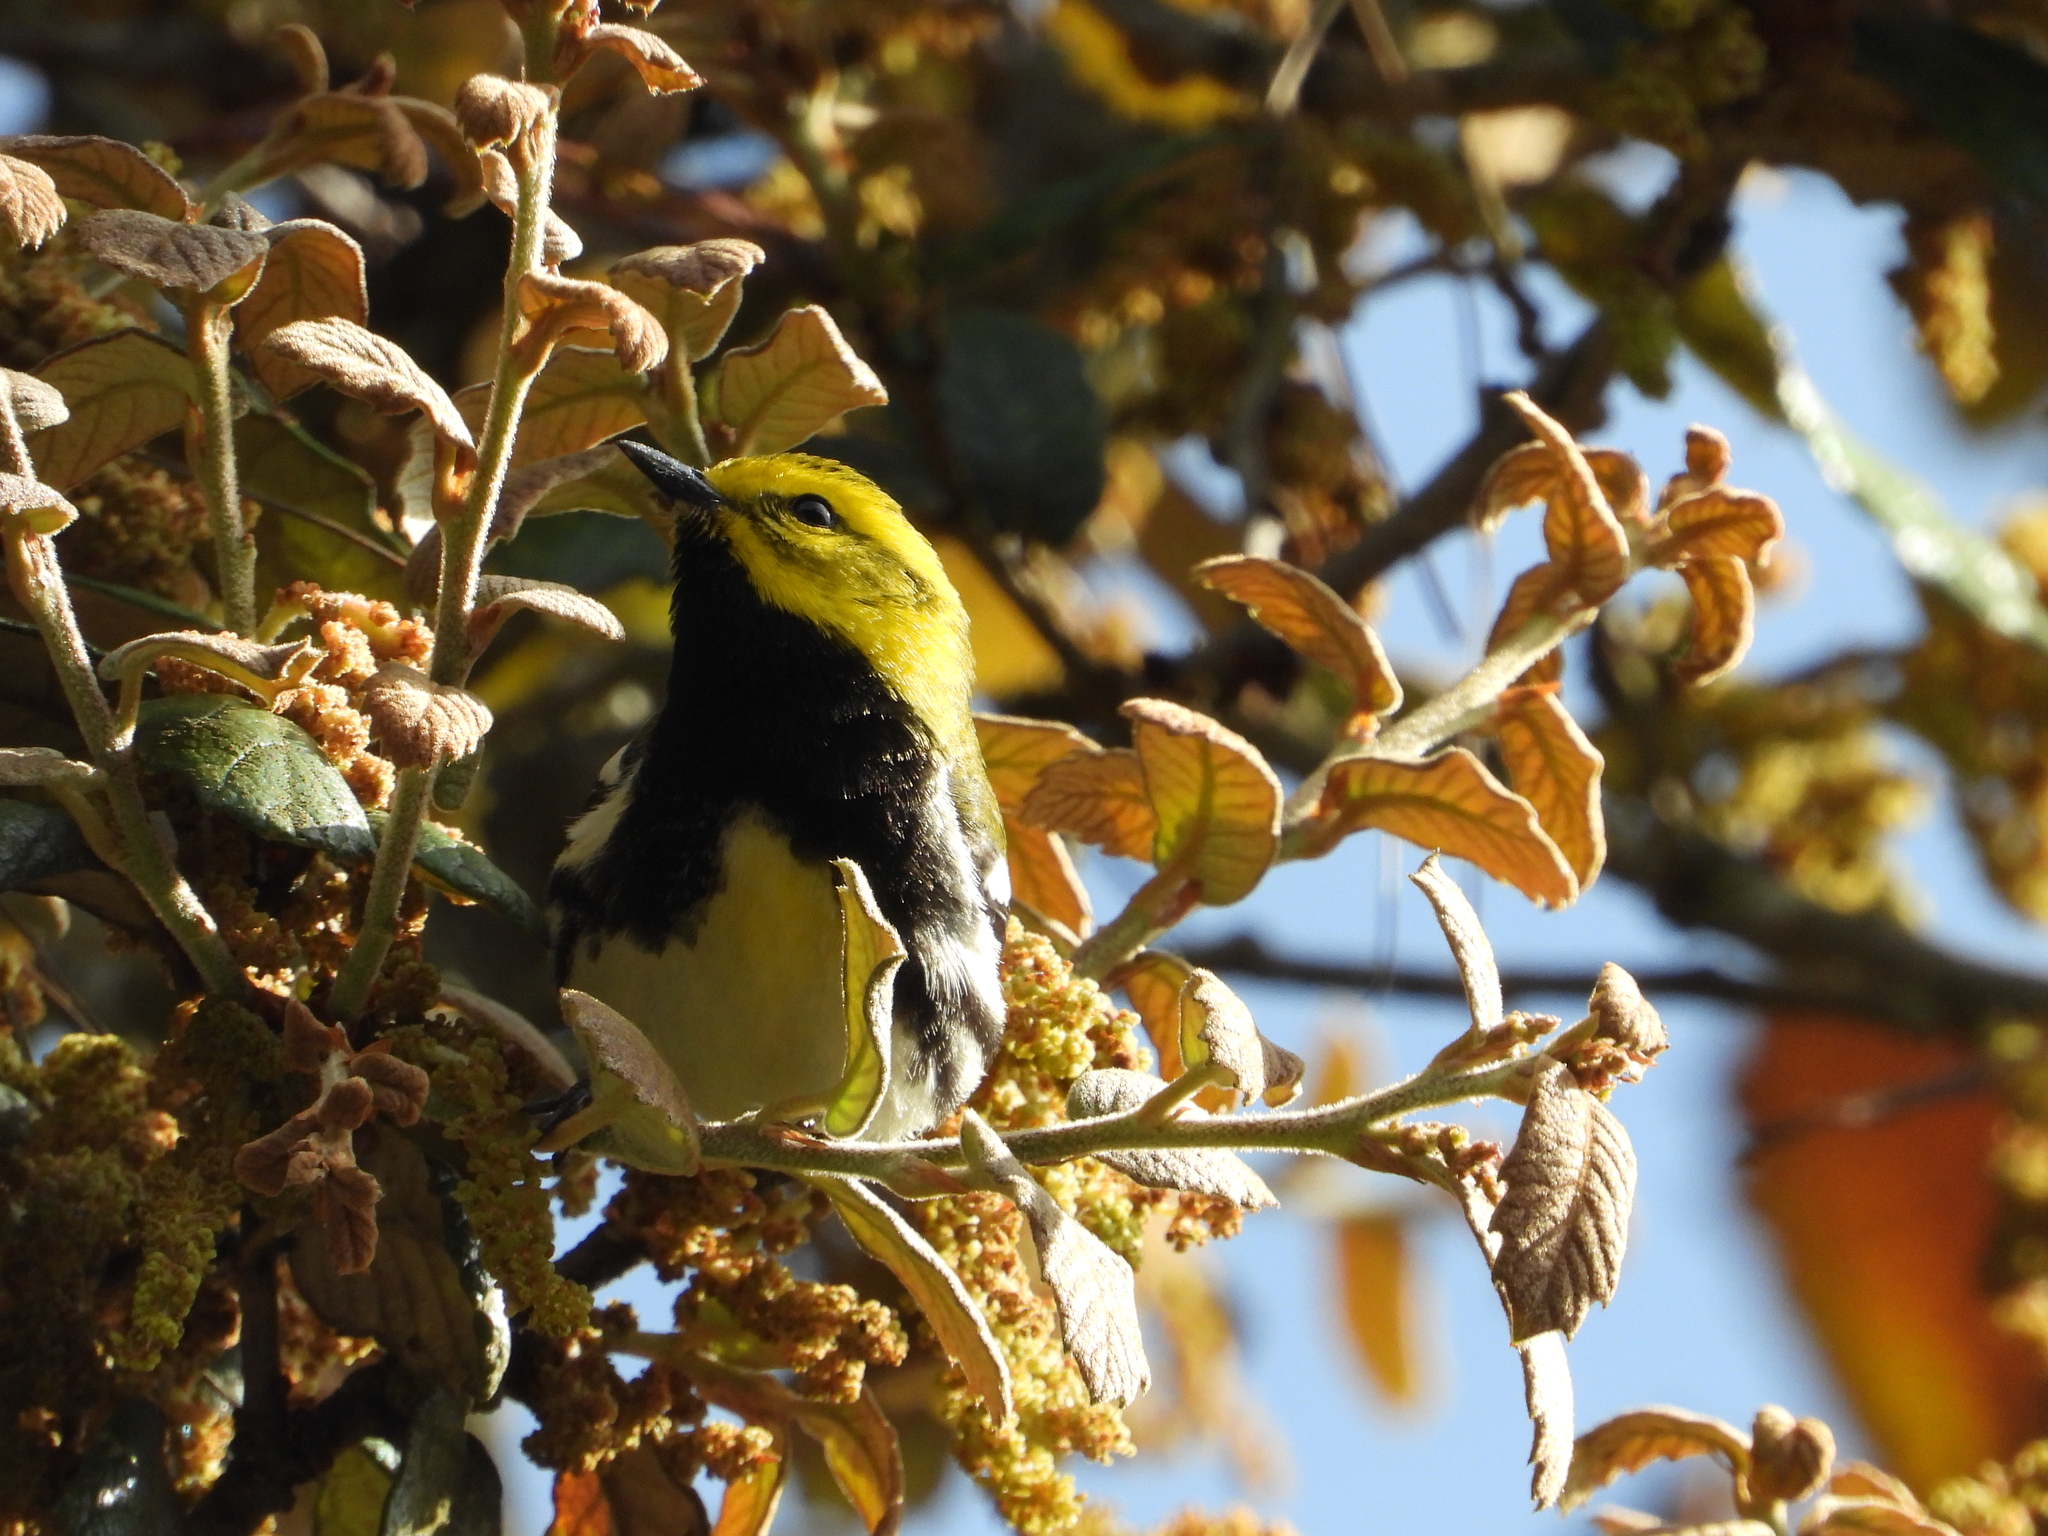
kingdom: Animalia
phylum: Chordata
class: Aves
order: Passeriformes
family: Parulidae
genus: Setophaga
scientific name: Setophaga virens
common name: Black-throated green warbler
